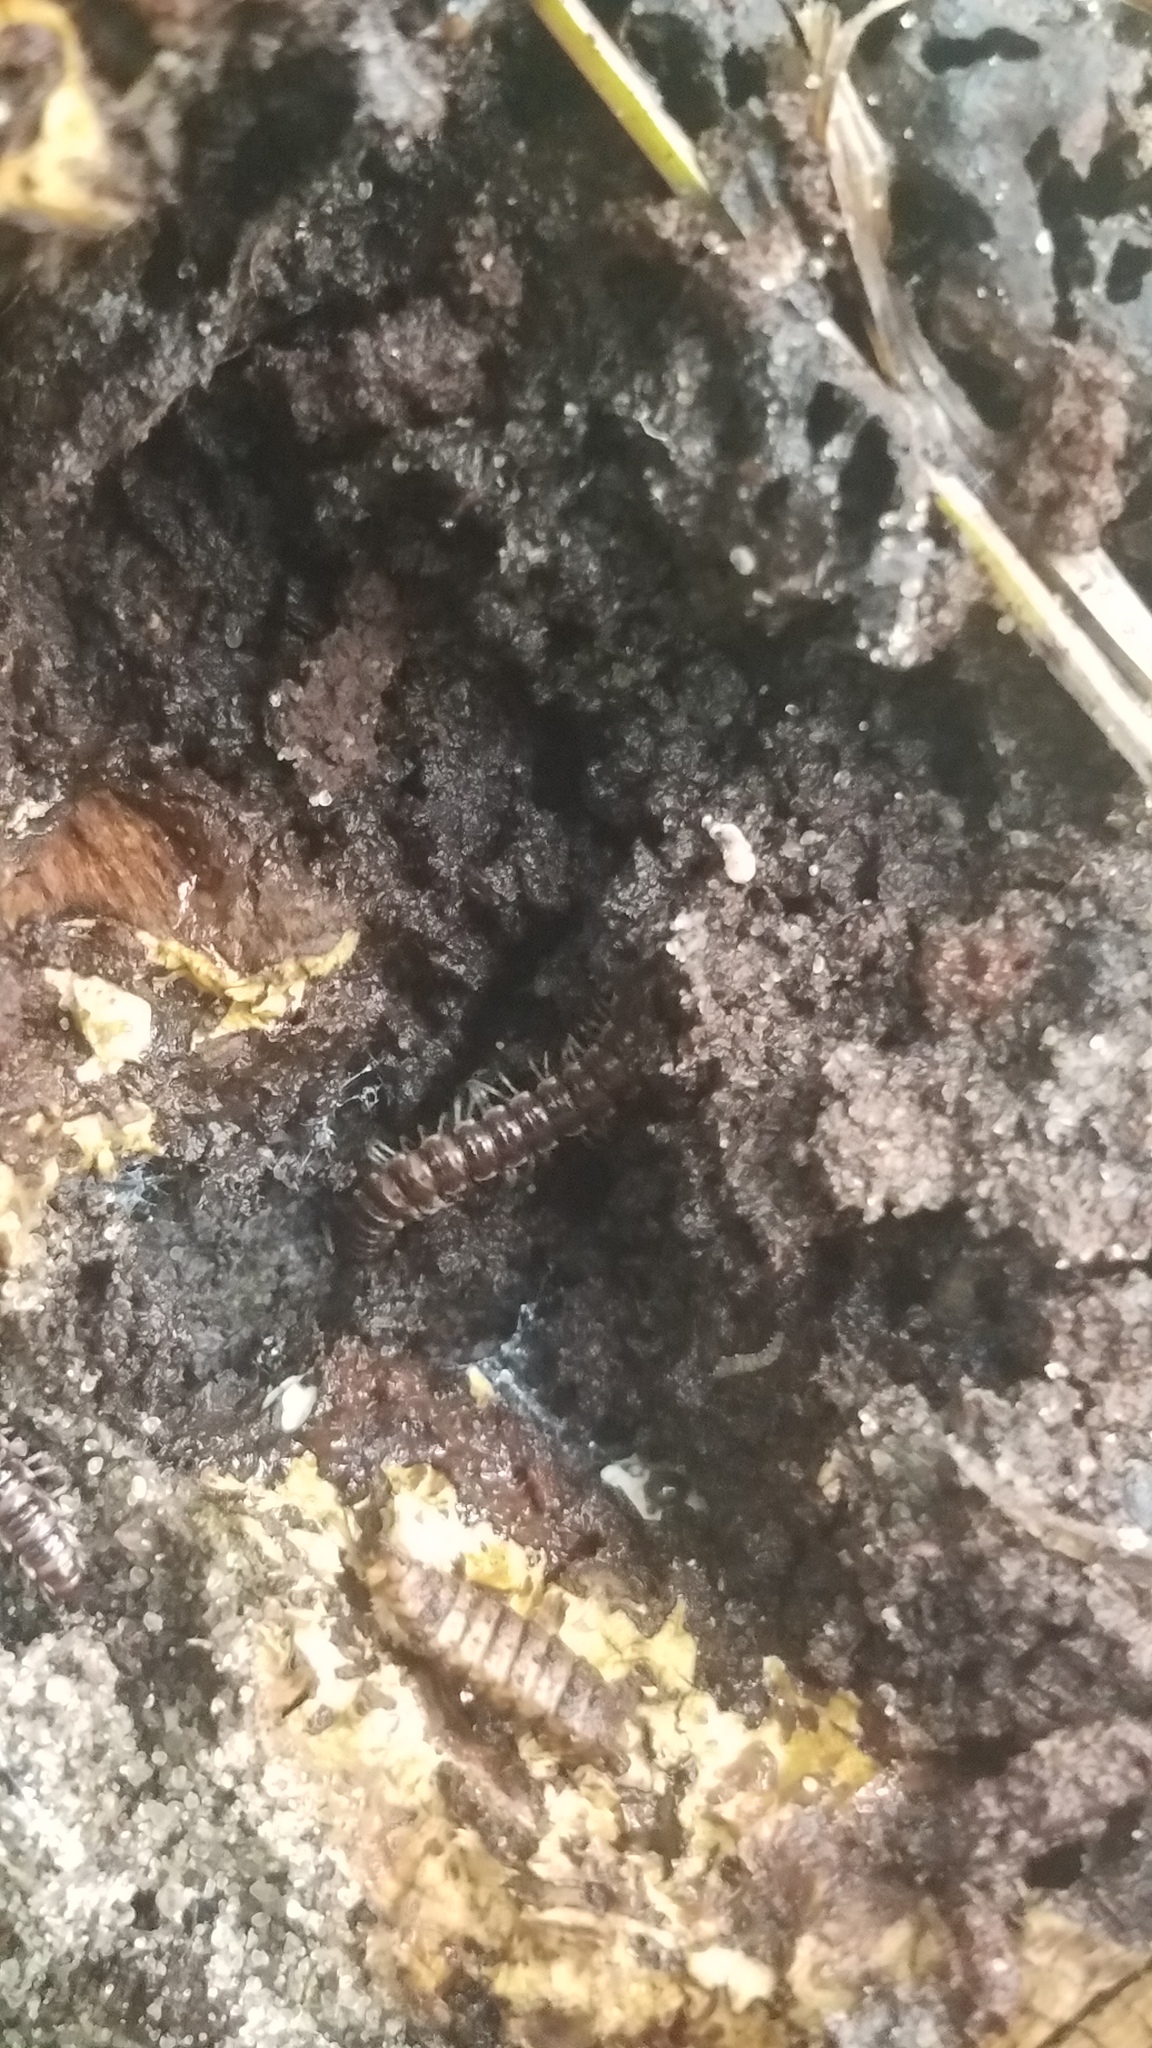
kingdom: Animalia
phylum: Arthropoda
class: Diplopoda
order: Polydesmida
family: Paradoxosomatidae
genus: Oxidus
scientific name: Oxidus gracilis
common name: Greenhouse millipede
